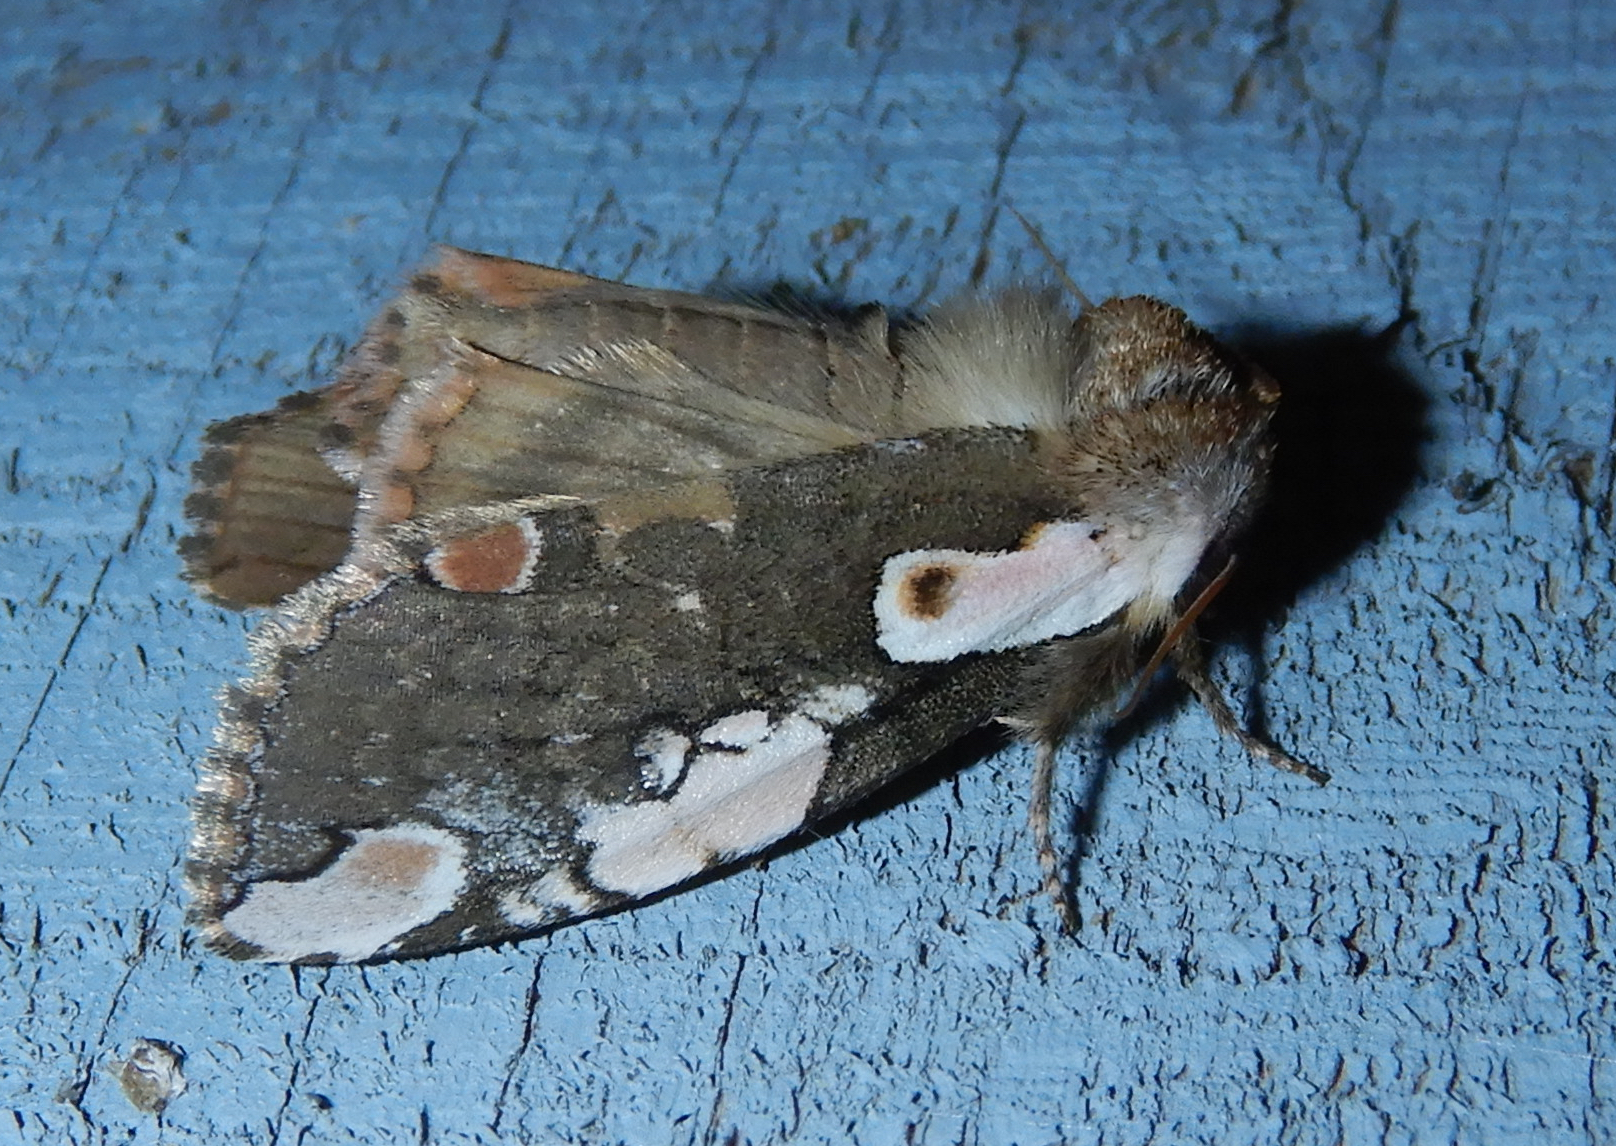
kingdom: Animalia
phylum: Arthropoda
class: Insecta
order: Lepidoptera
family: Drepanidae
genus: Euthyatira
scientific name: Euthyatira pudens
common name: Dogwood thyatirid moth
